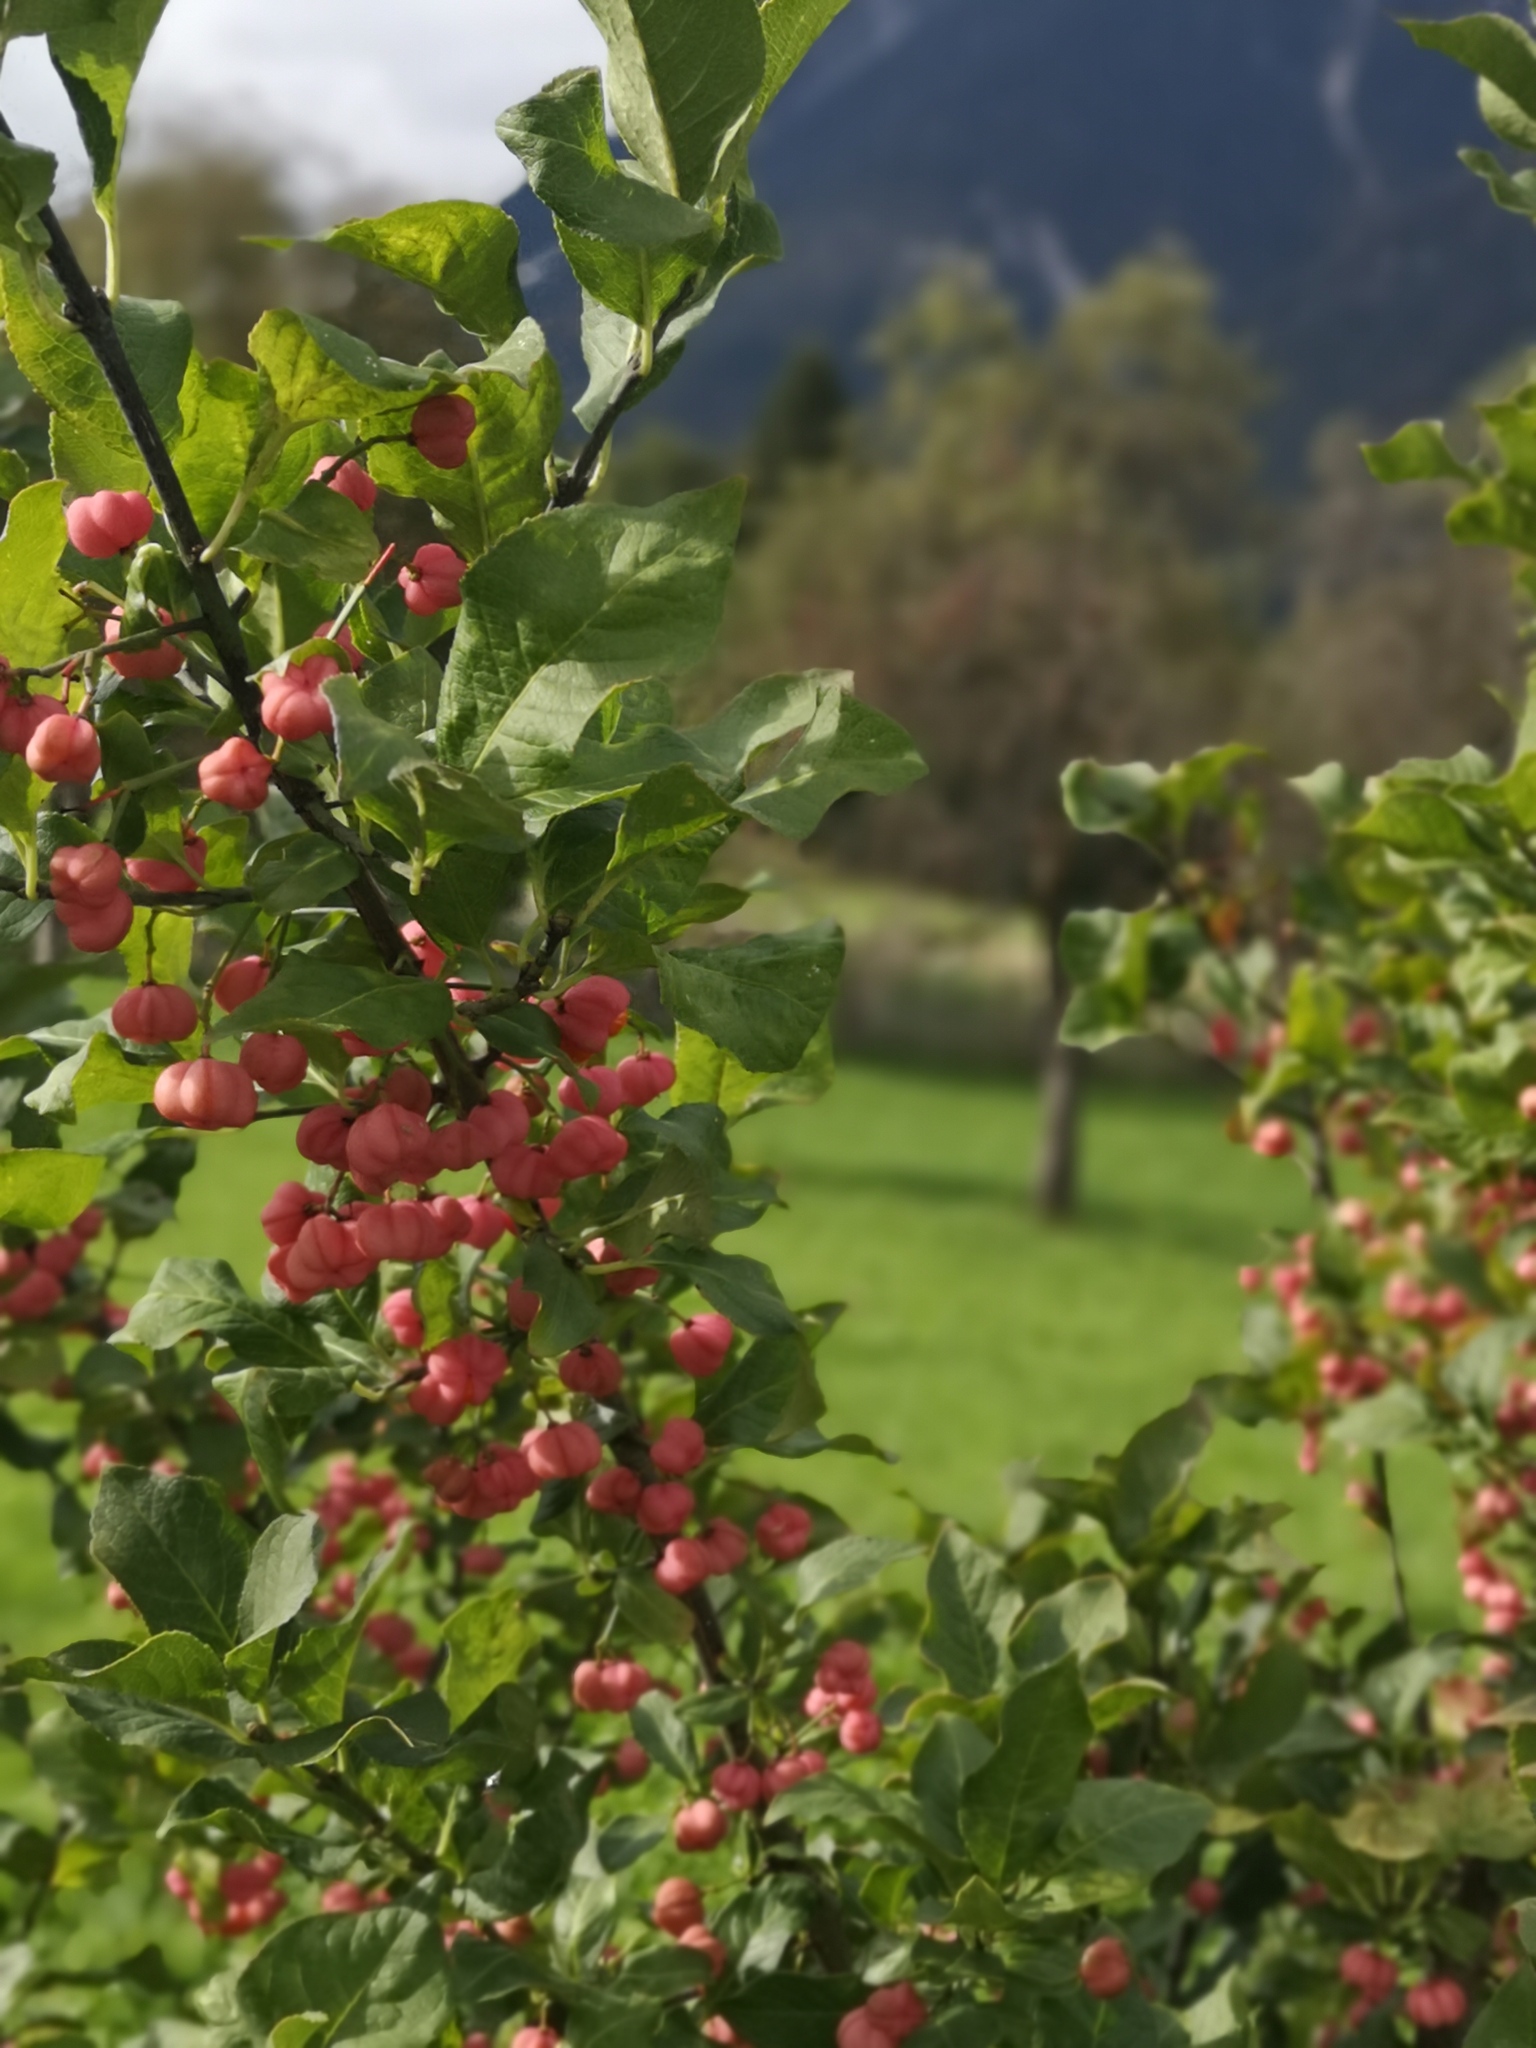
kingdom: Plantae
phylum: Tracheophyta
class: Magnoliopsida
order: Celastrales
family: Celastraceae
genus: Euonymus
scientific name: Euonymus europaeus
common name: Spindle
